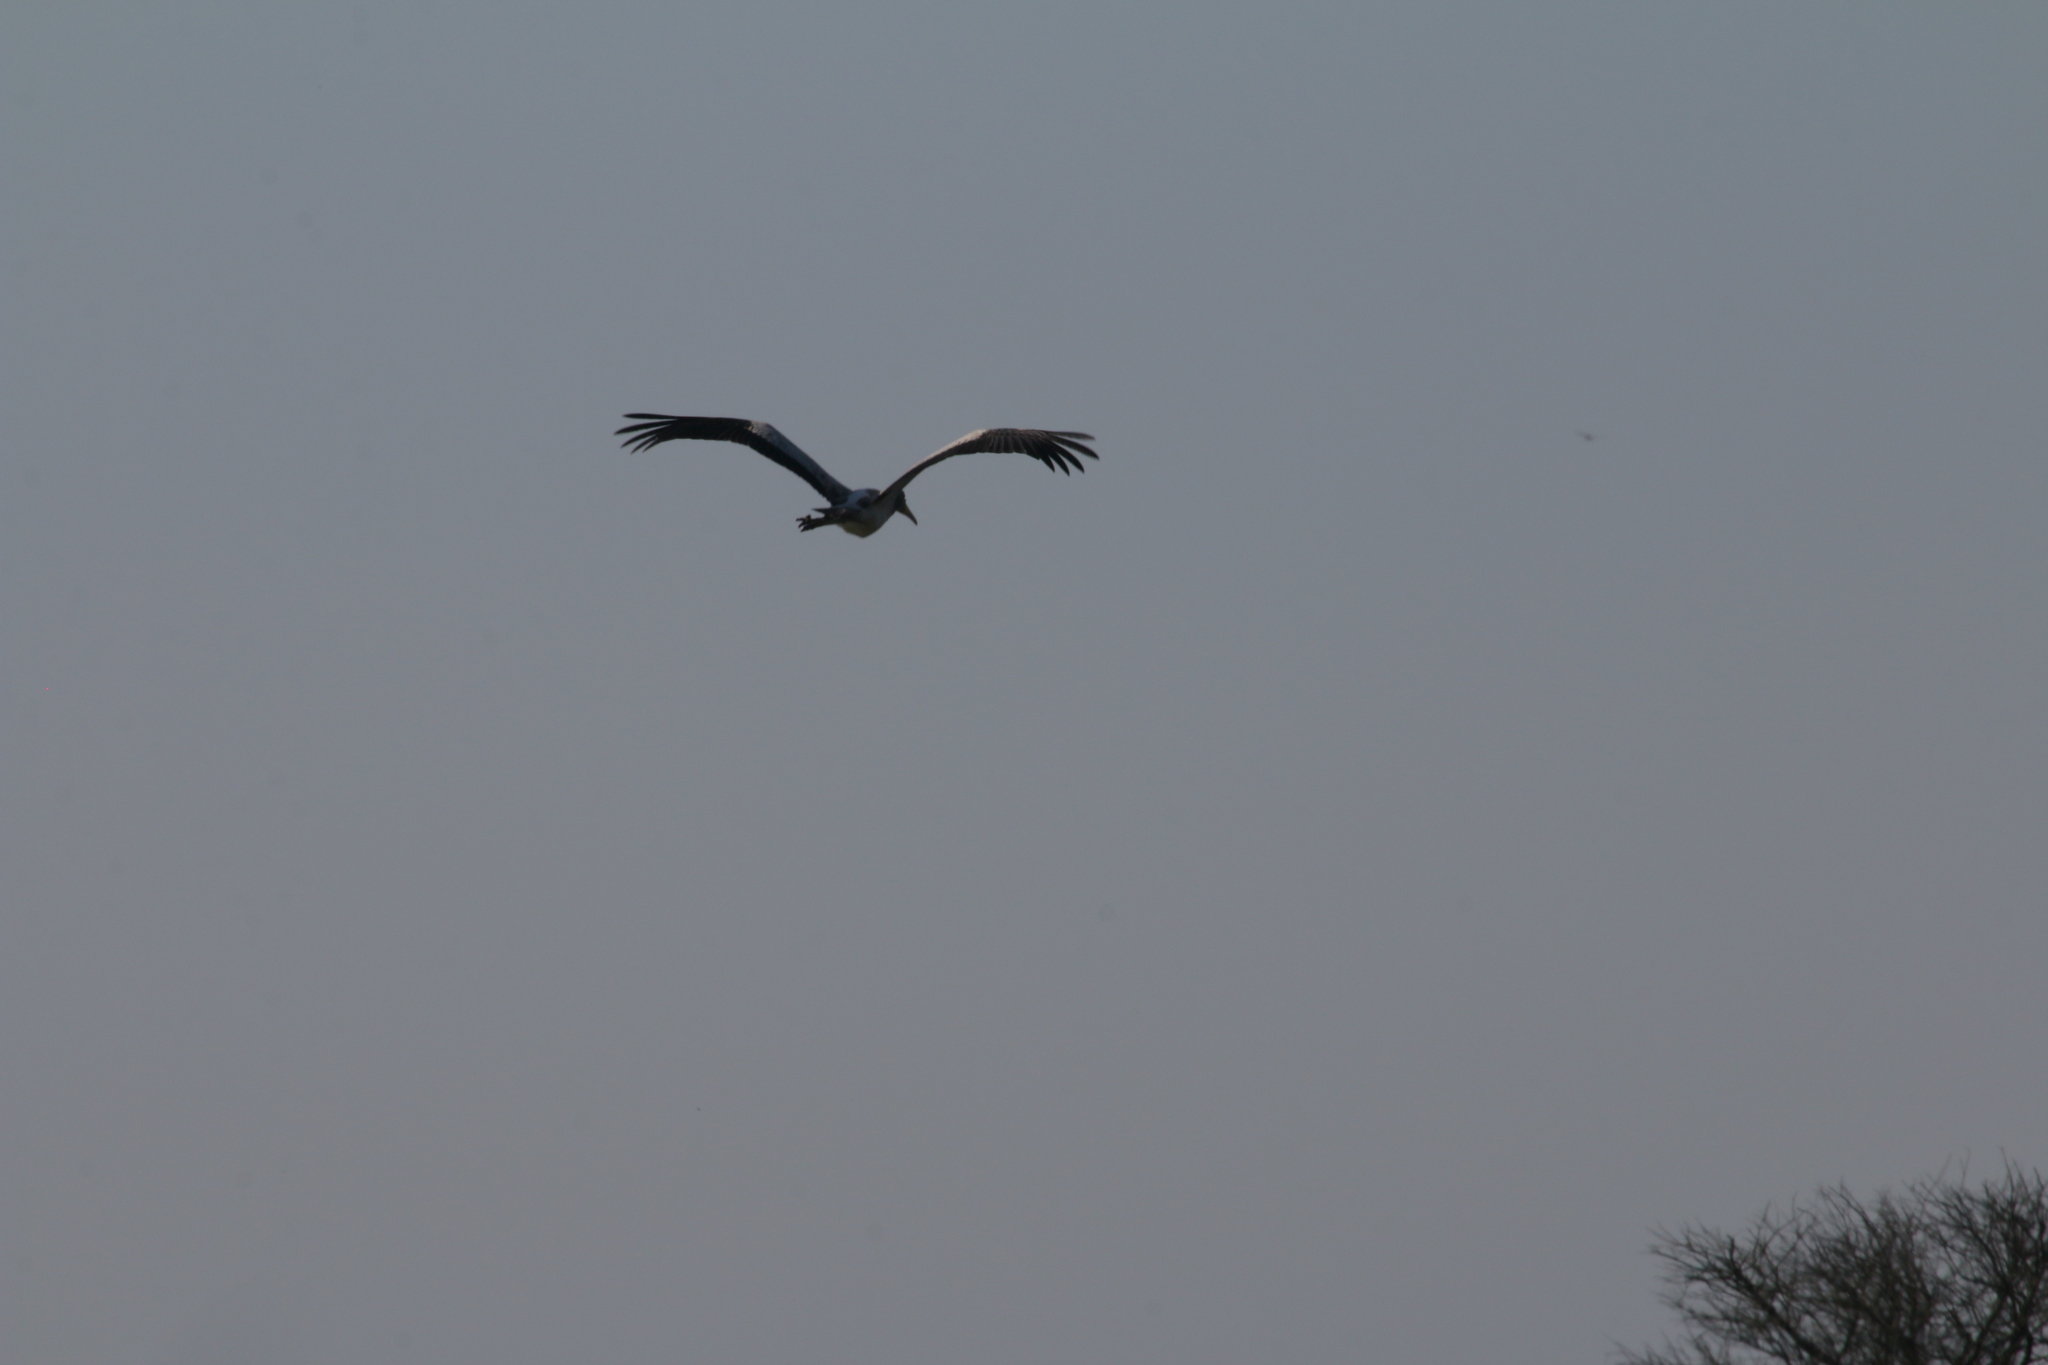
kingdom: Animalia
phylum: Chordata
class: Aves
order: Ciconiiformes
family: Ciconiidae
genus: Mycteria
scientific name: Mycteria ibis
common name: Yellow-billed stork
